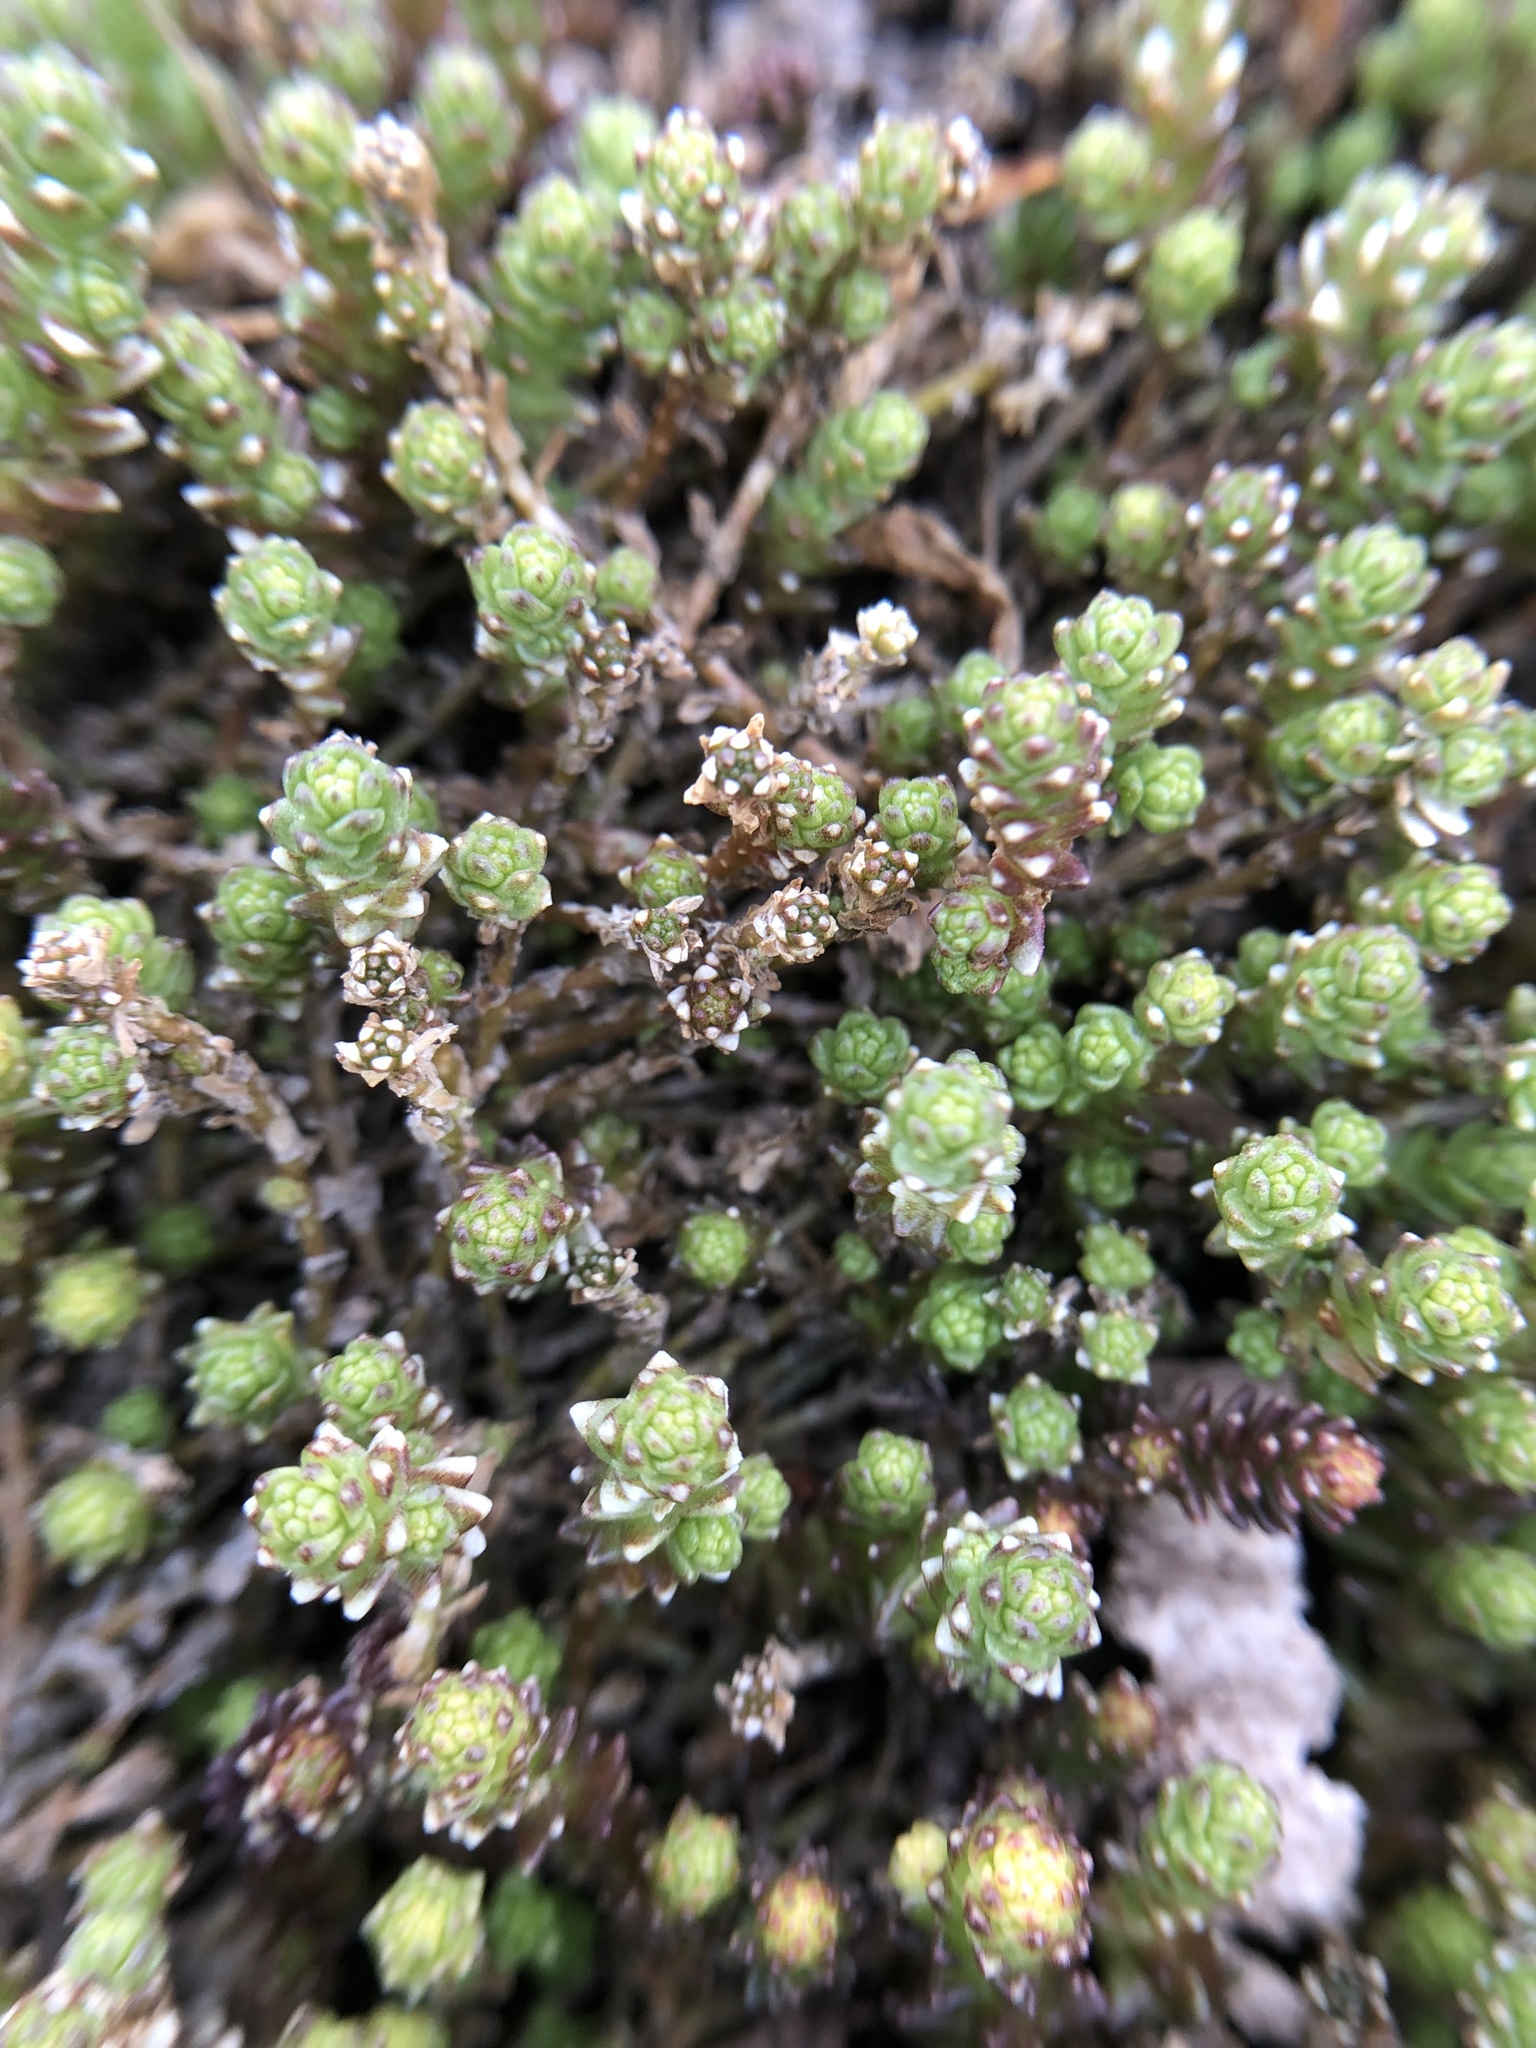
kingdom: Plantae
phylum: Tracheophyta
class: Magnoliopsida
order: Saxifragales
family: Crassulaceae
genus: Sedum
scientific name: Sedum acre
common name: Biting stonecrop
